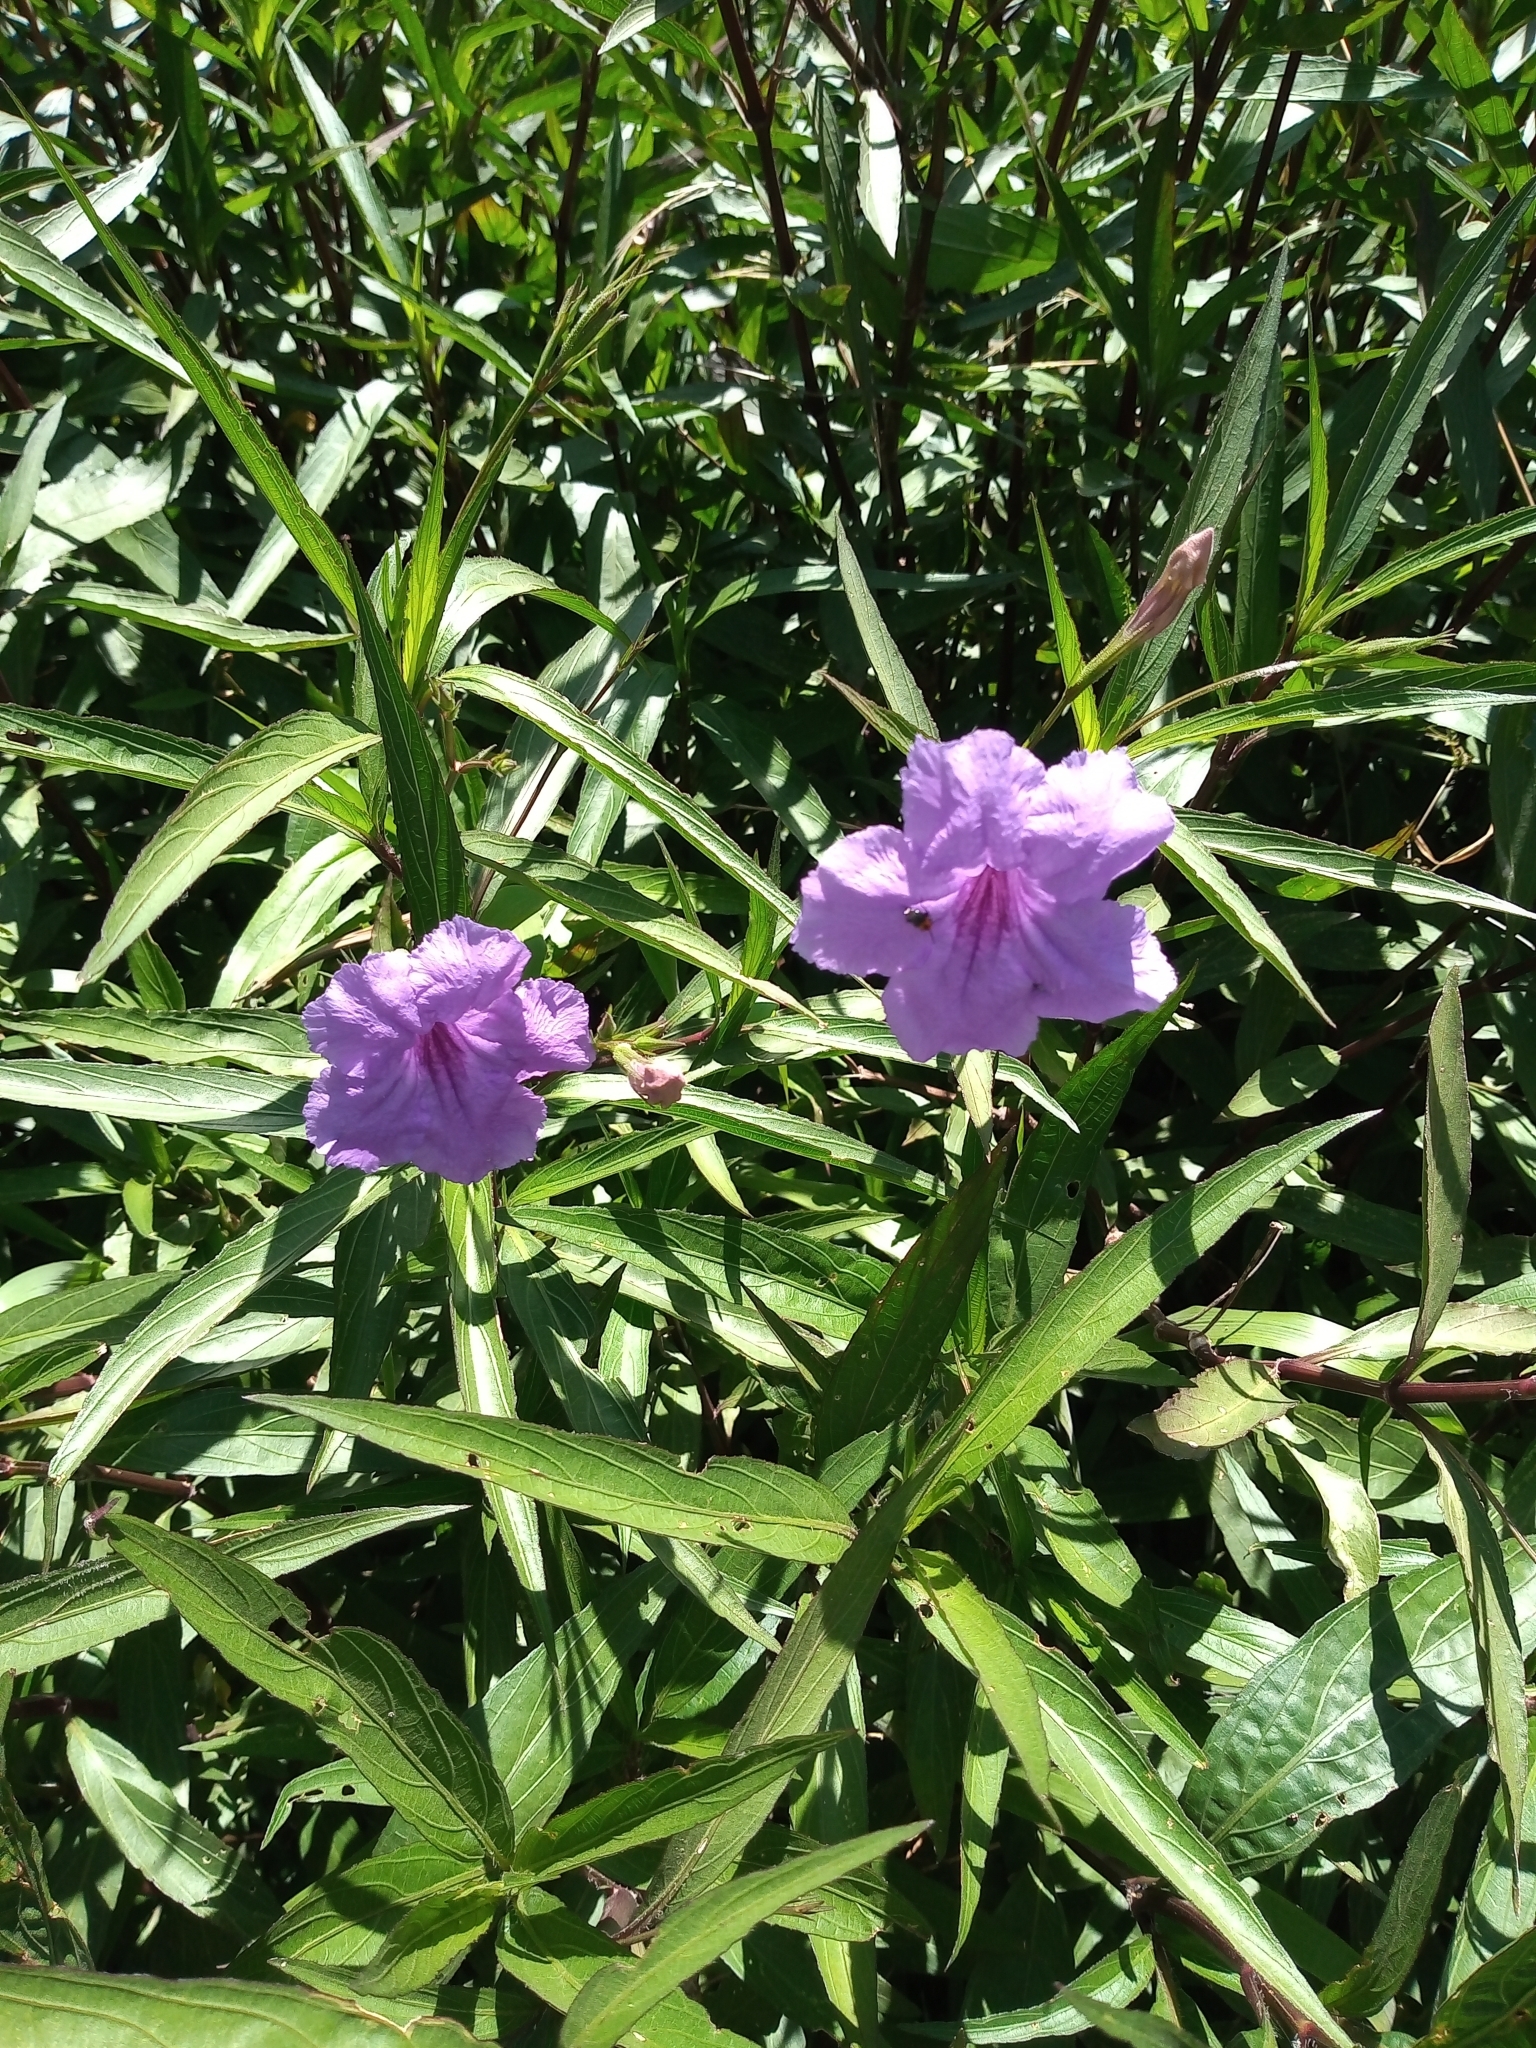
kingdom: Plantae
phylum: Tracheophyta
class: Magnoliopsida
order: Lamiales
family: Acanthaceae
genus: Ruellia
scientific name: Ruellia simplex
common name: Softseed wild petunia
